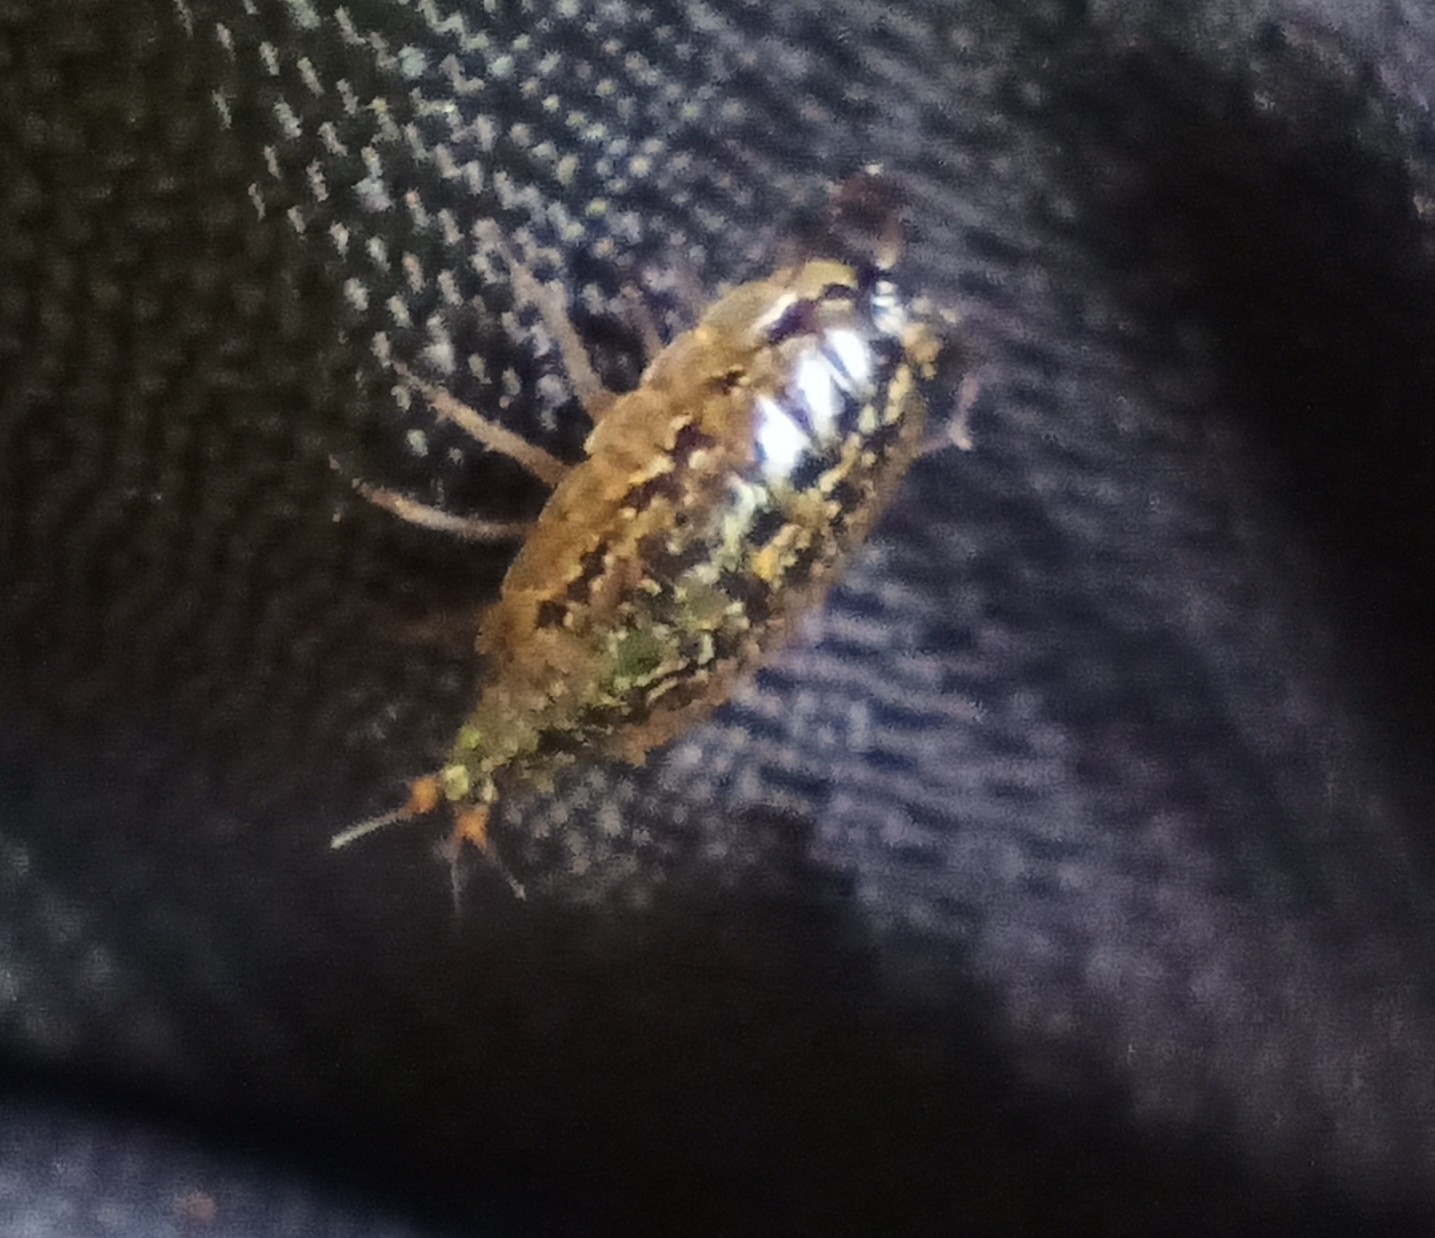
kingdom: Animalia
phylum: Arthropoda
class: Malacostraca
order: Isopoda
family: Ligiidae
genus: Ligidium
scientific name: Ligidium hypnorum
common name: Moss slater
